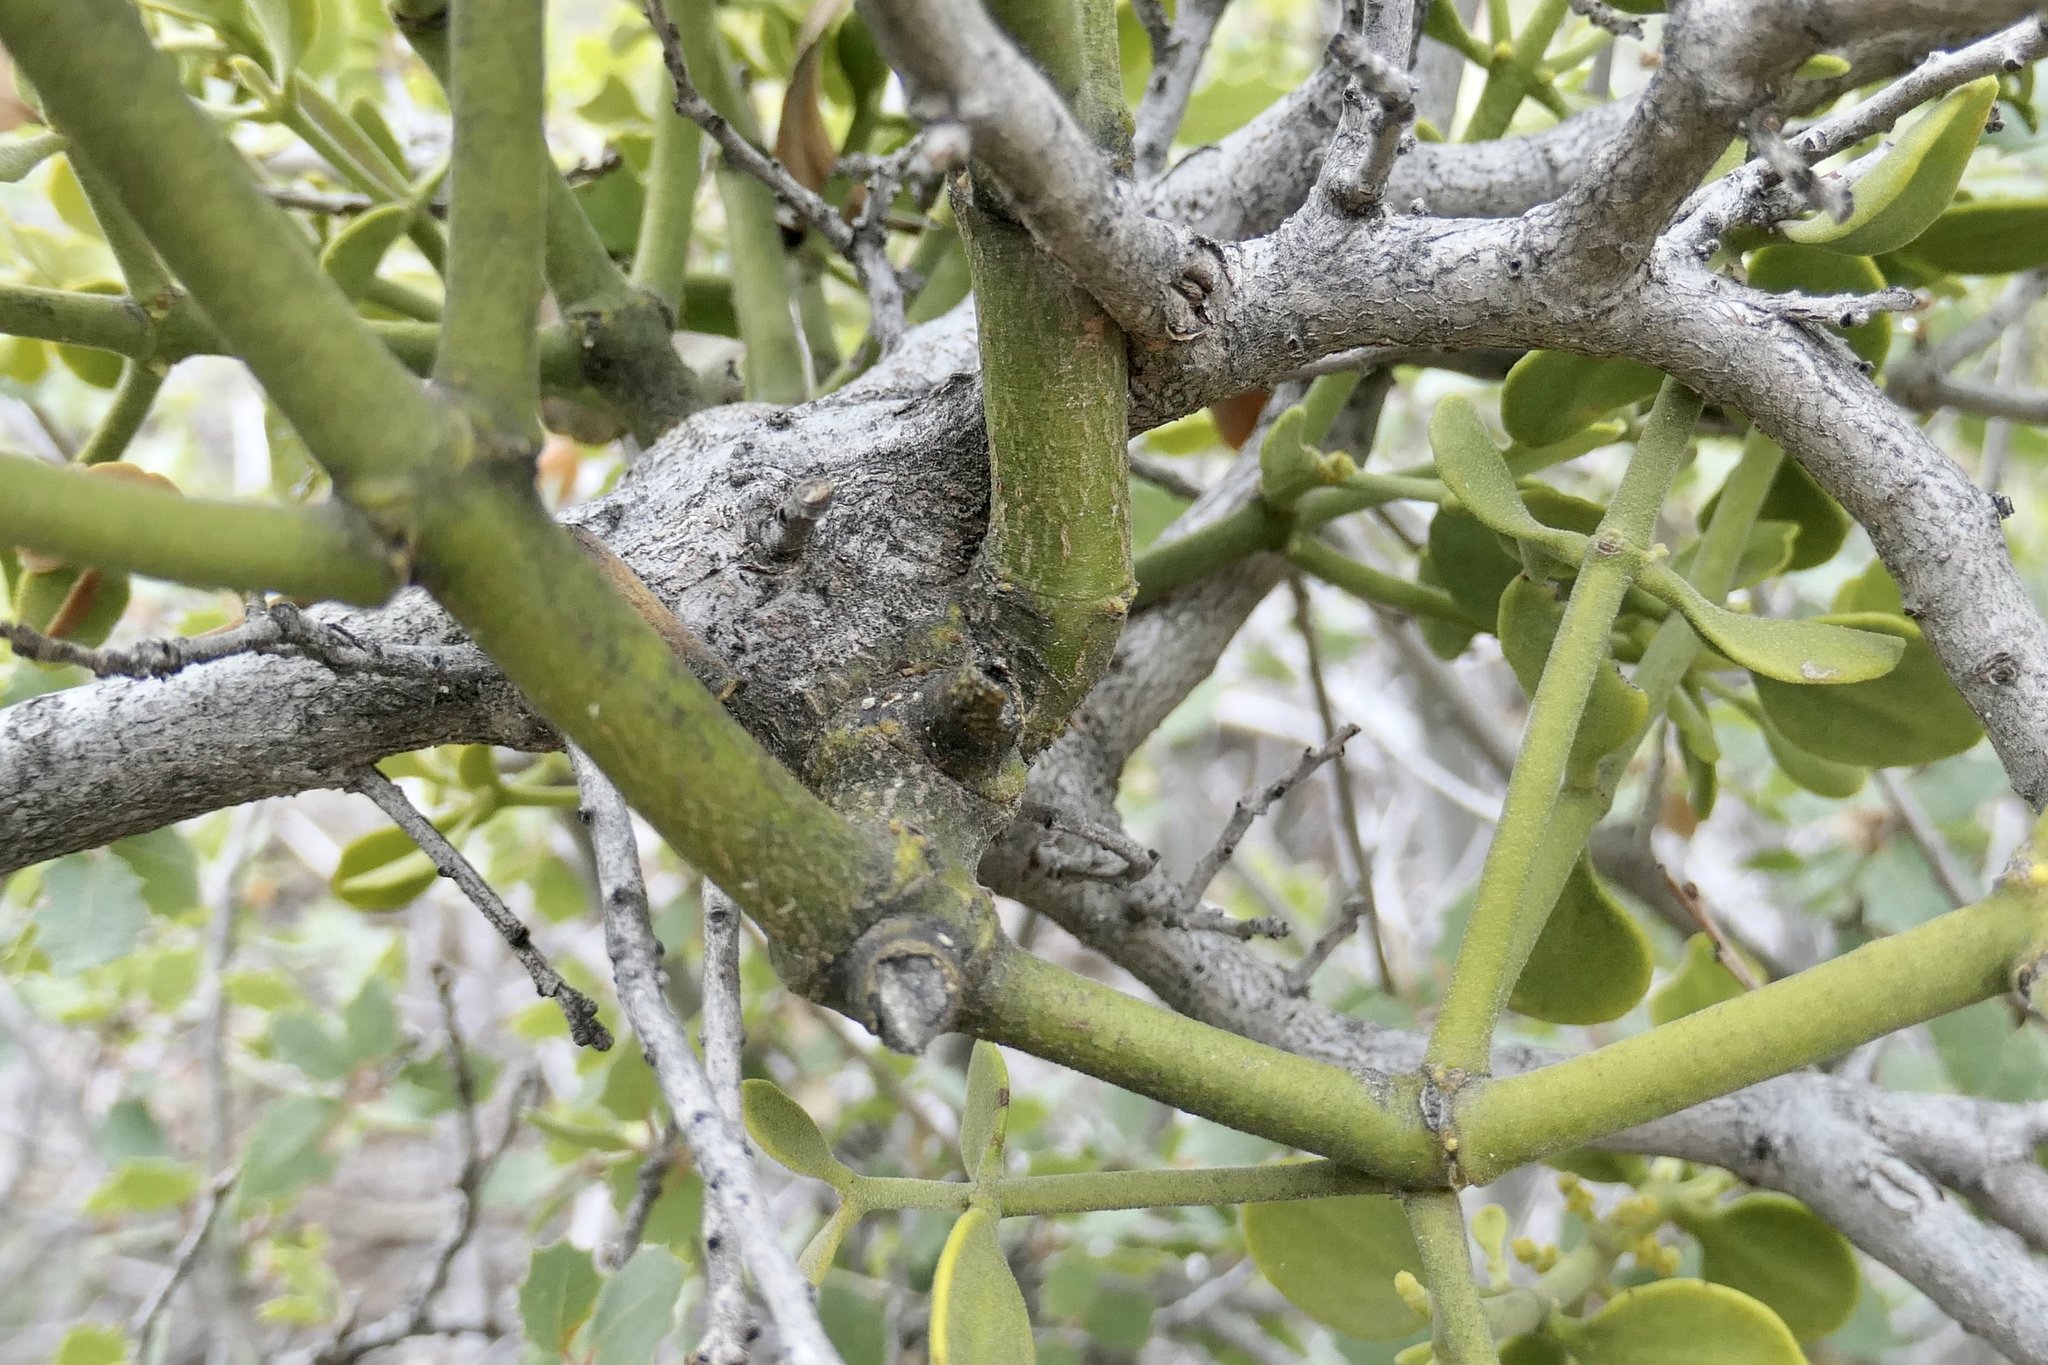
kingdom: Plantae
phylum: Tracheophyta
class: Magnoliopsida
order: Santalales
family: Viscaceae
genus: Phoradendron
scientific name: Phoradendron coryae
